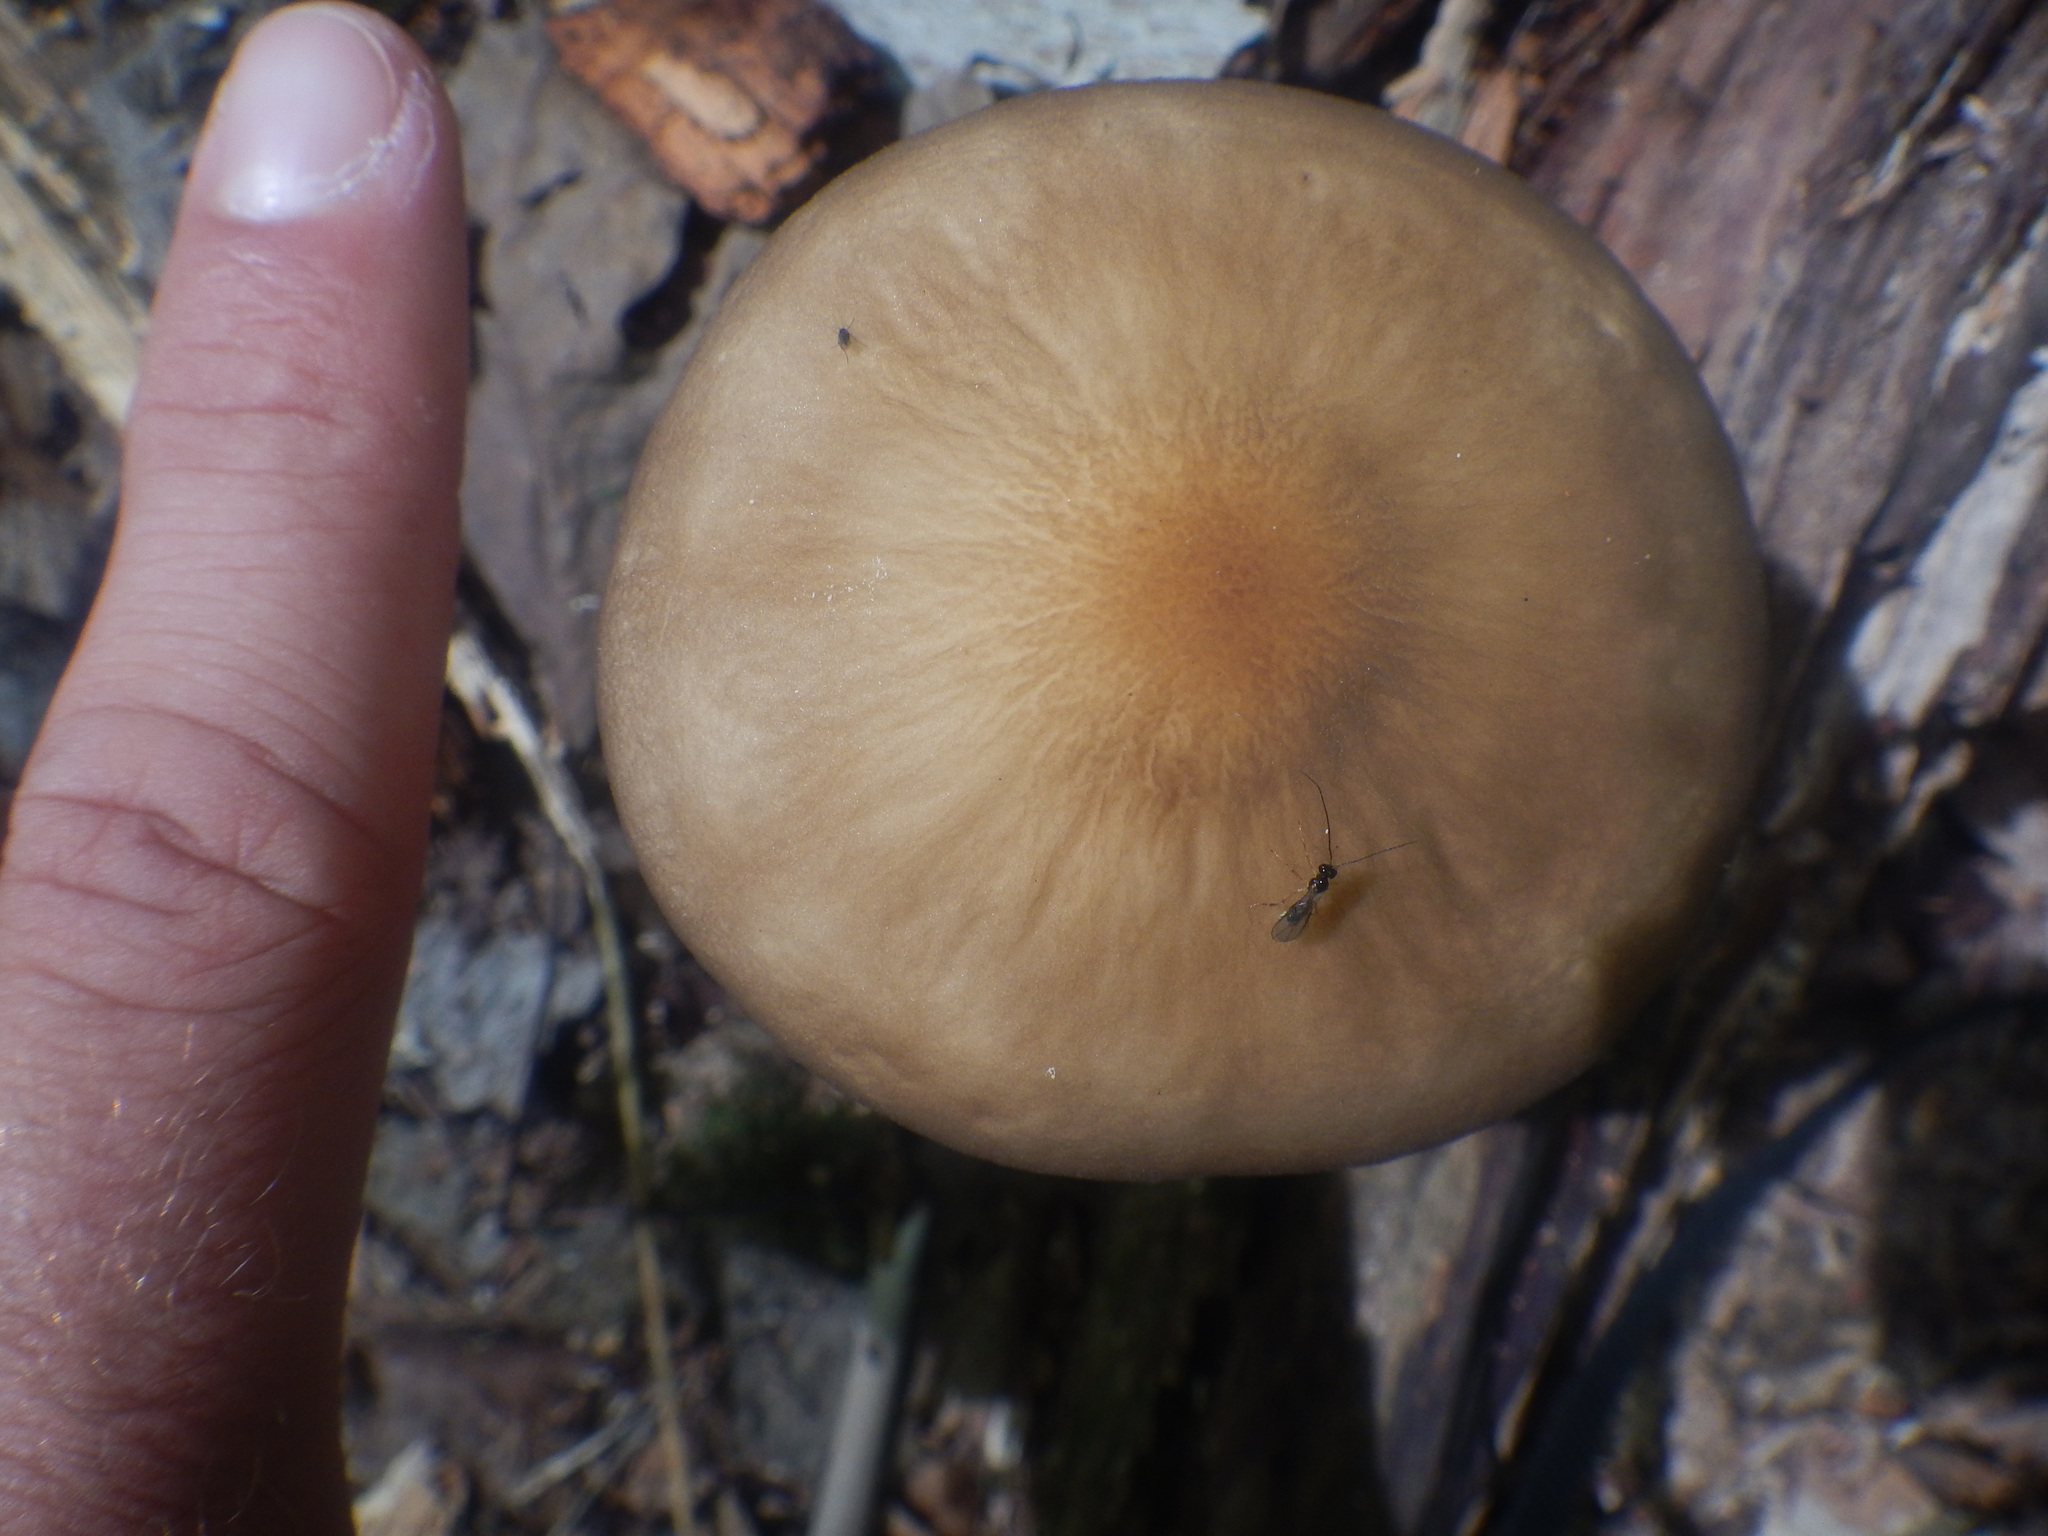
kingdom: Fungi
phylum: Basidiomycota
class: Agaricomycetes
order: Agaricales
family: Physalacriaceae
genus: Hymenopellis
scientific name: Hymenopellis furfuracea
